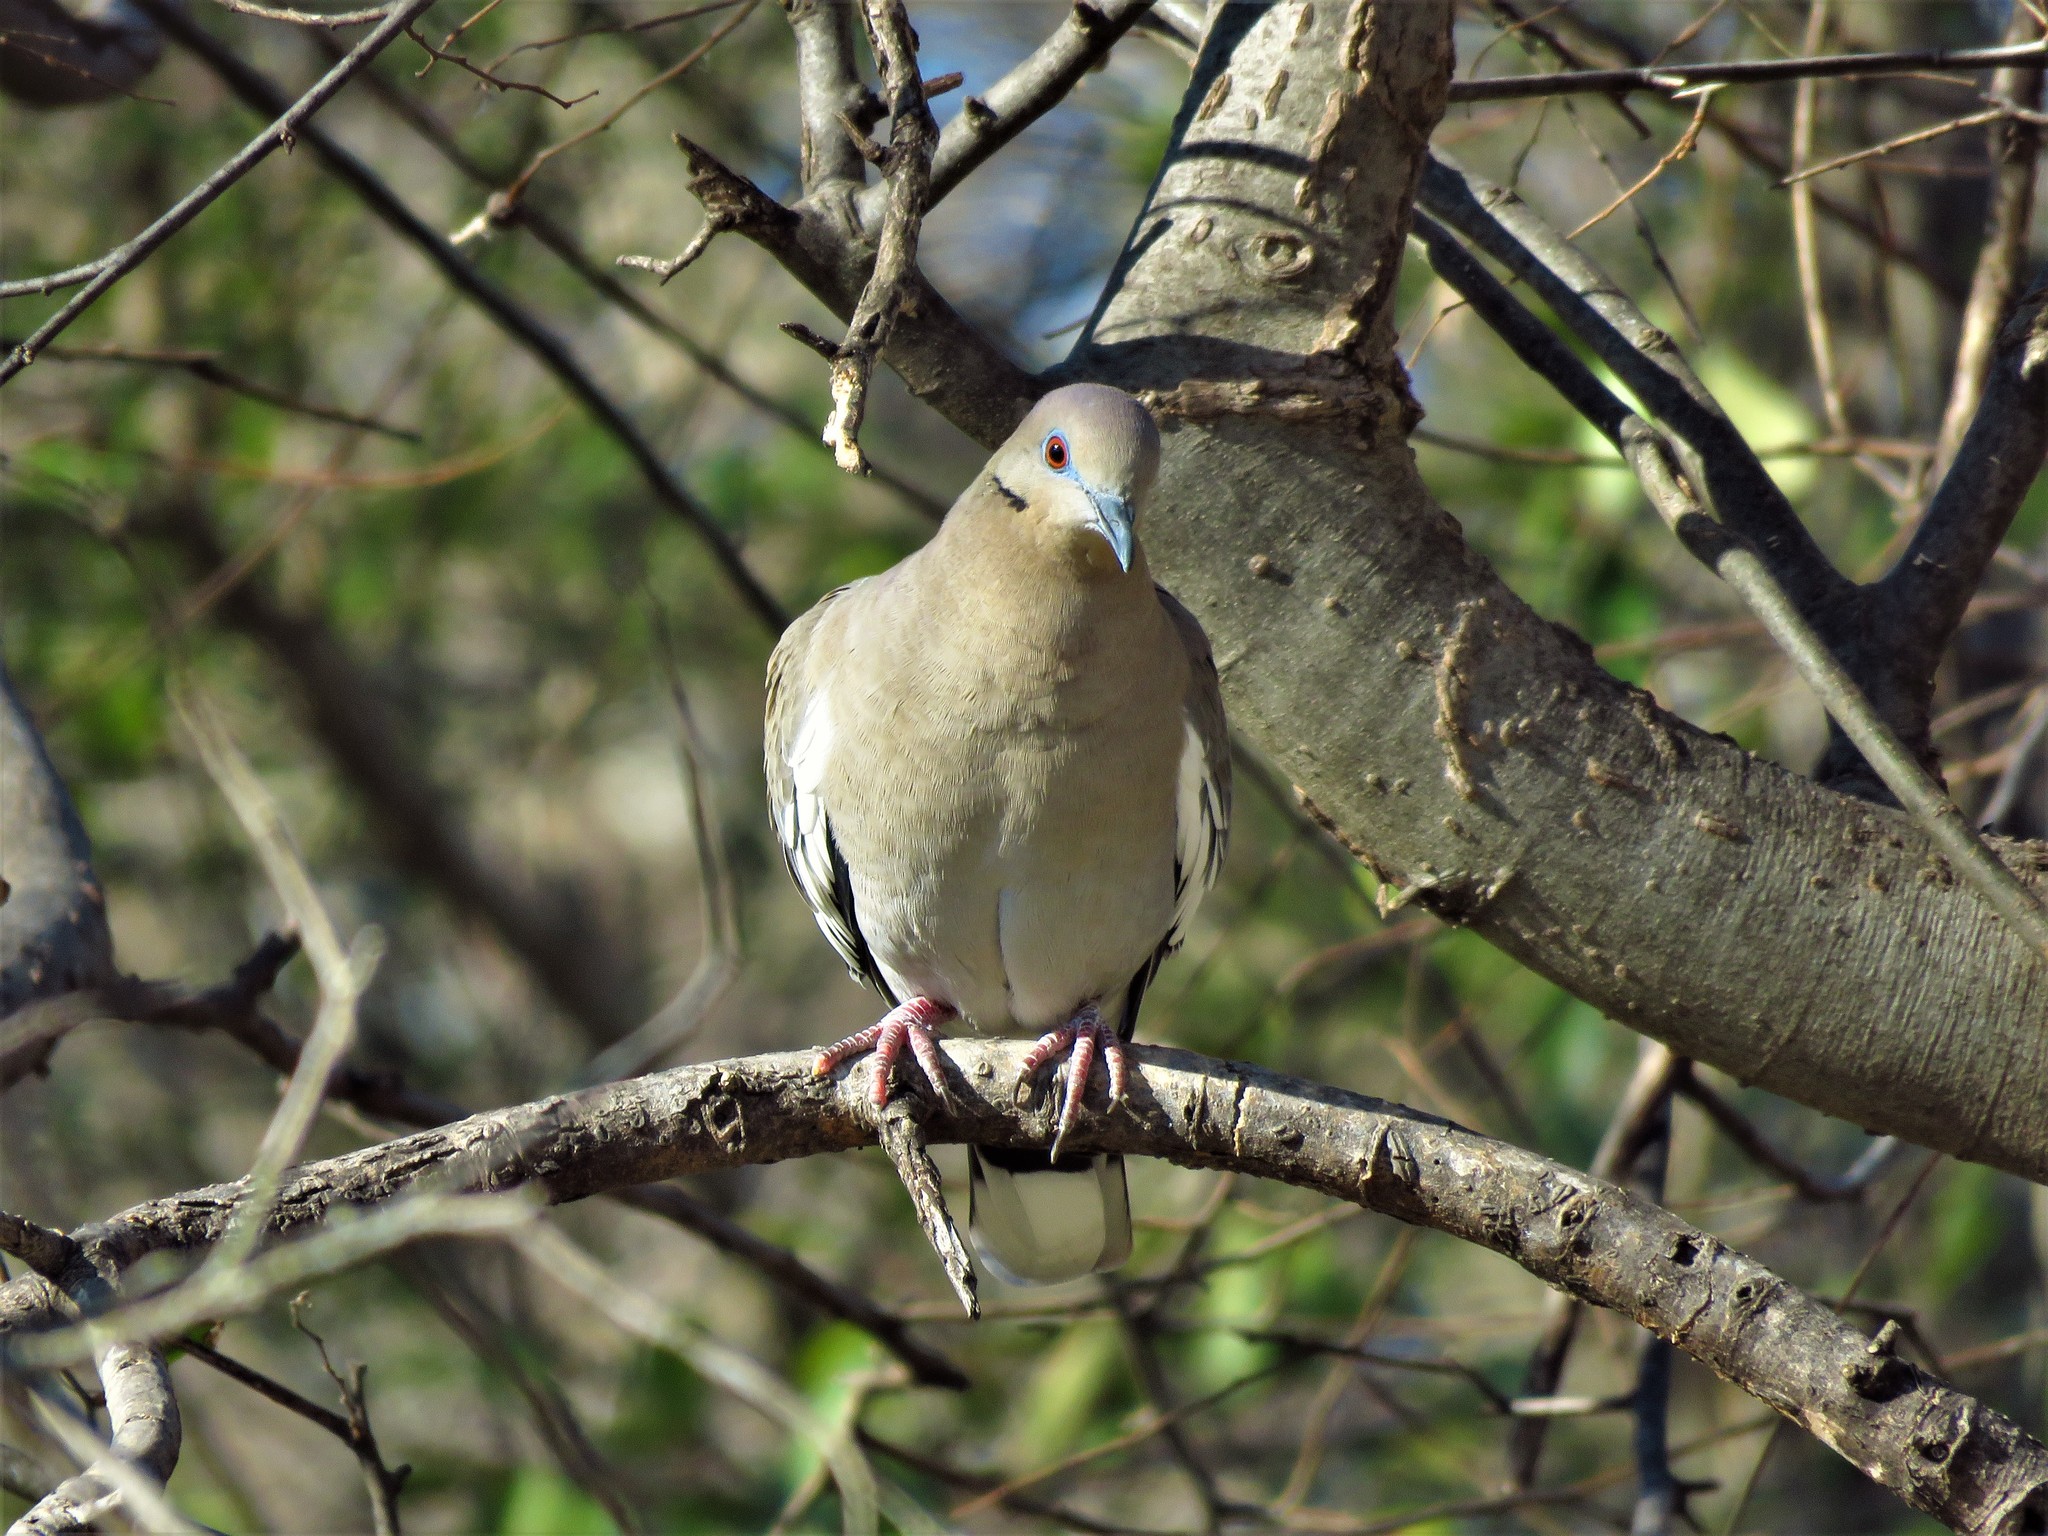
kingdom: Animalia
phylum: Chordata
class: Aves
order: Columbiformes
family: Columbidae
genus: Zenaida
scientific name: Zenaida asiatica
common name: White-winged dove
